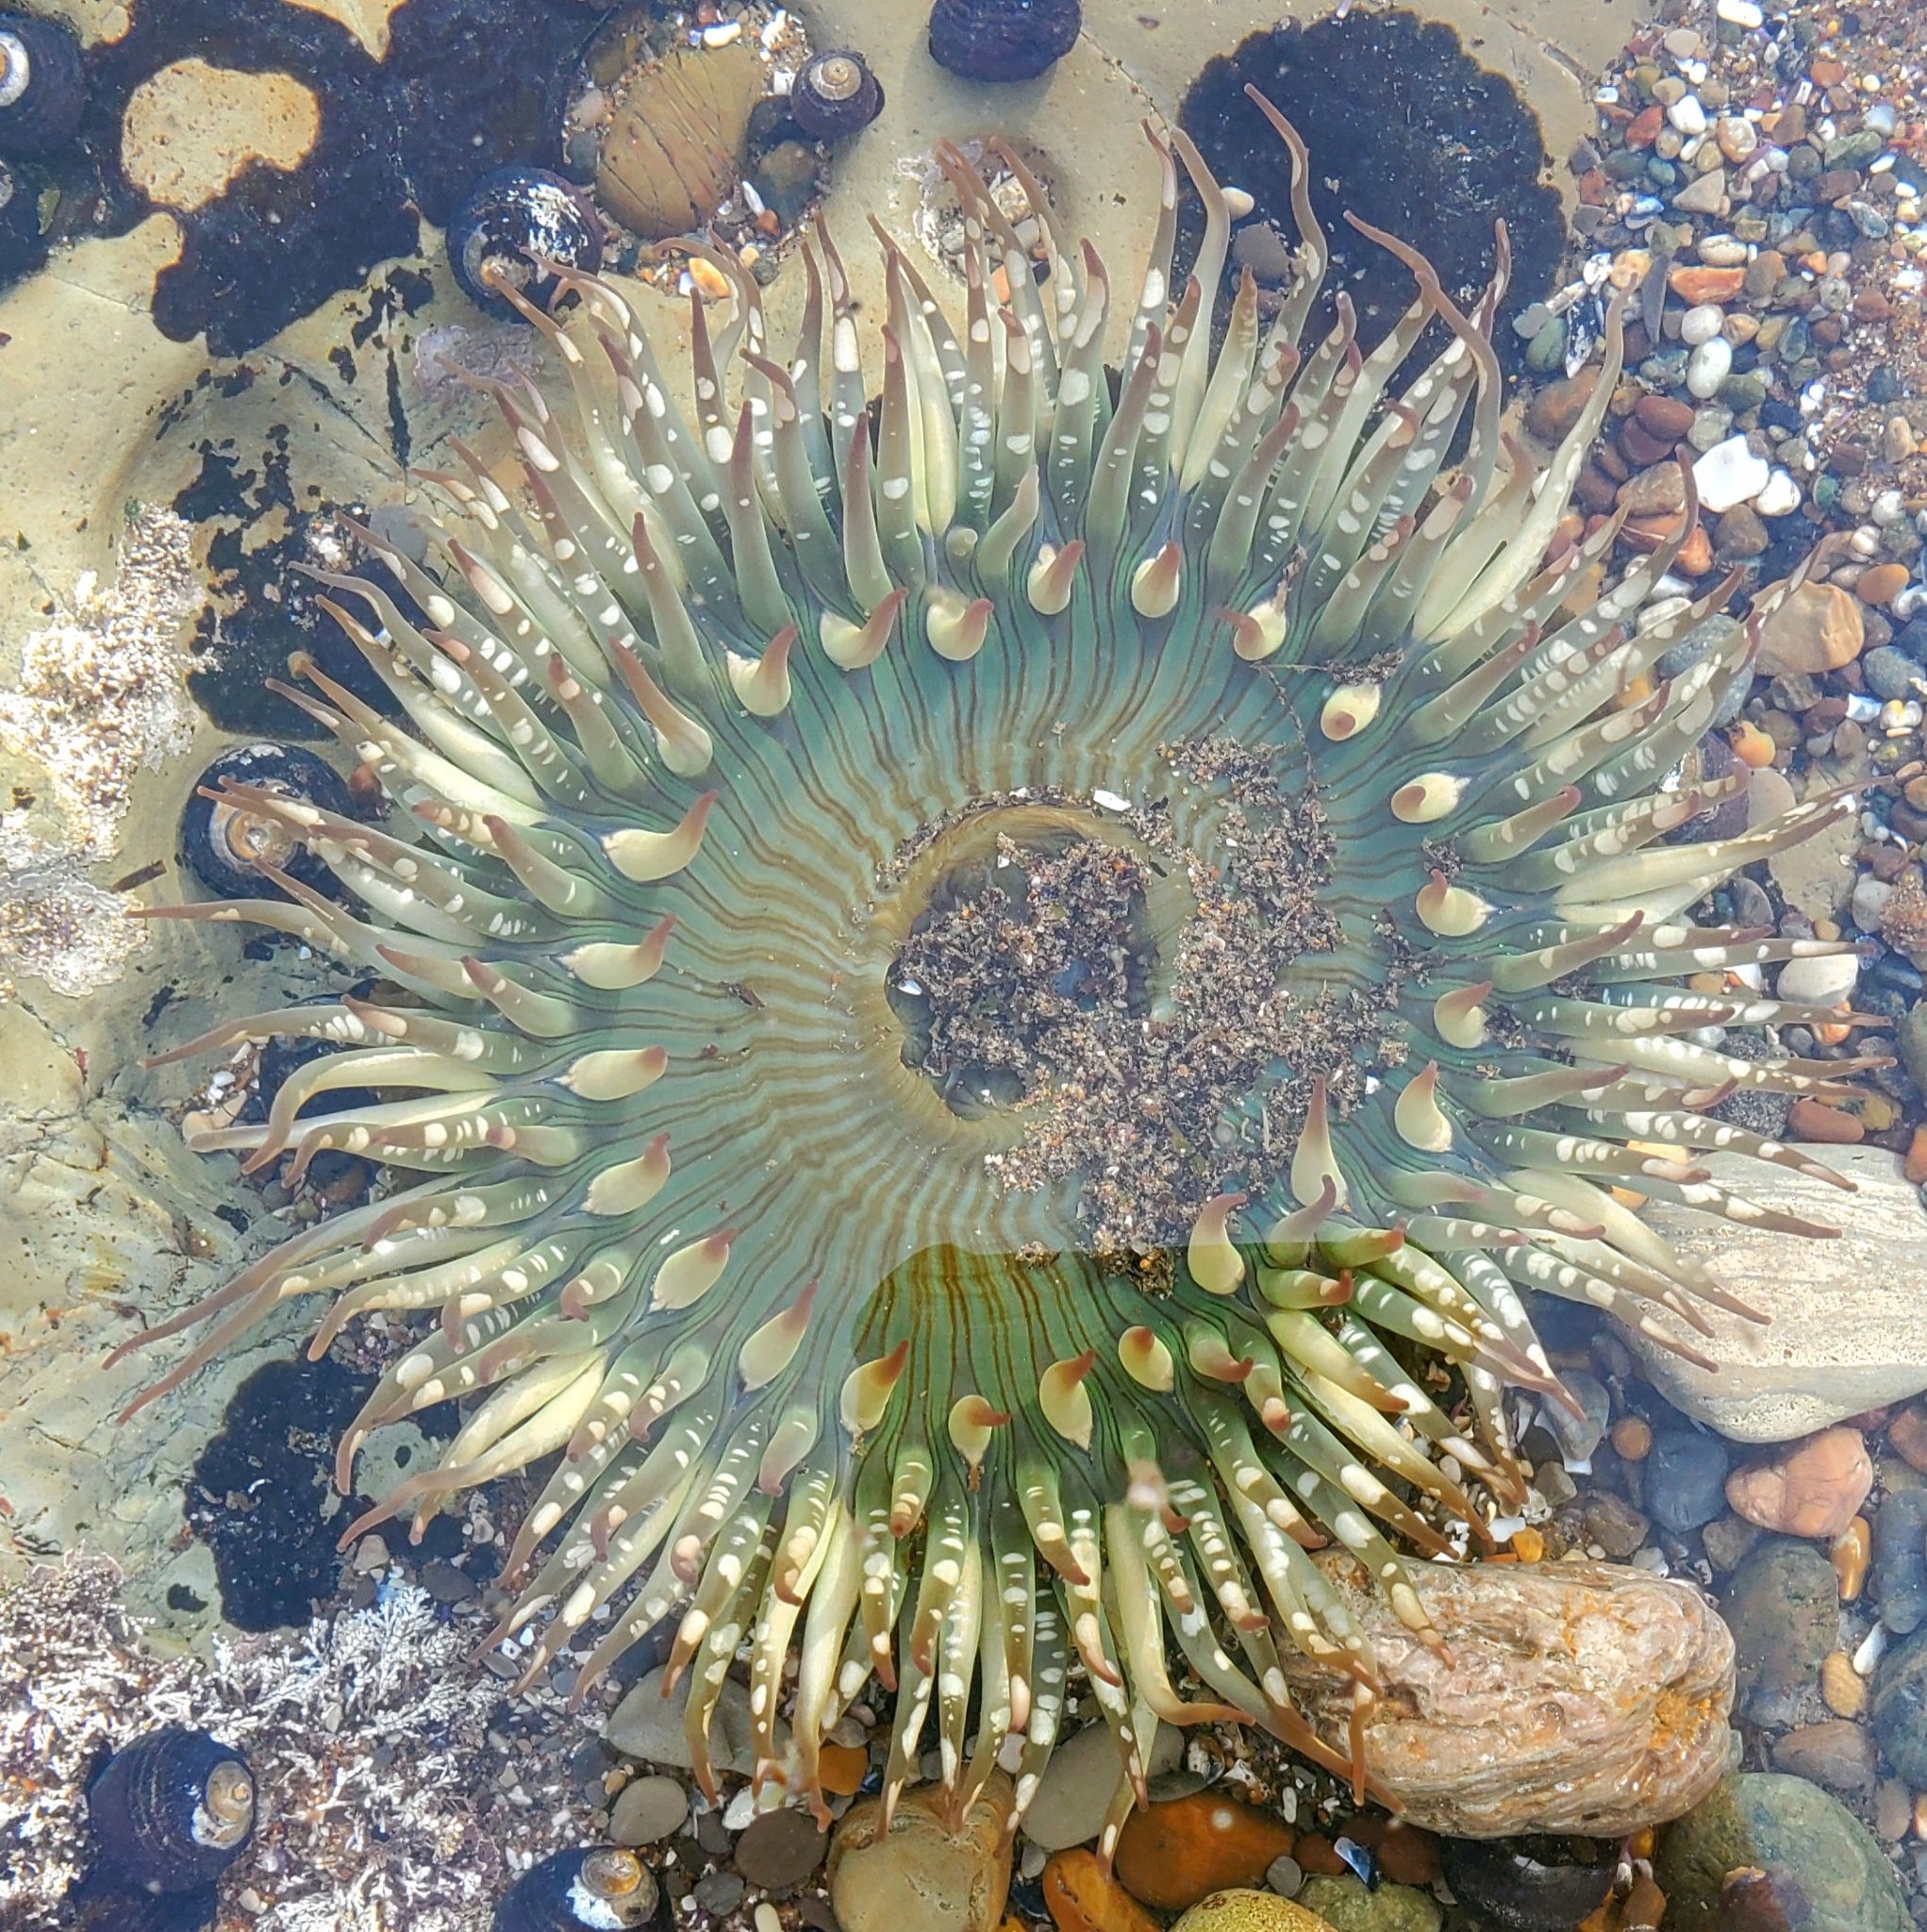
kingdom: Animalia
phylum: Cnidaria
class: Anthozoa
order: Actiniaria
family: Actiniidae
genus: Anthopleura
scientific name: Anthopleura sola
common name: Sun anemone
